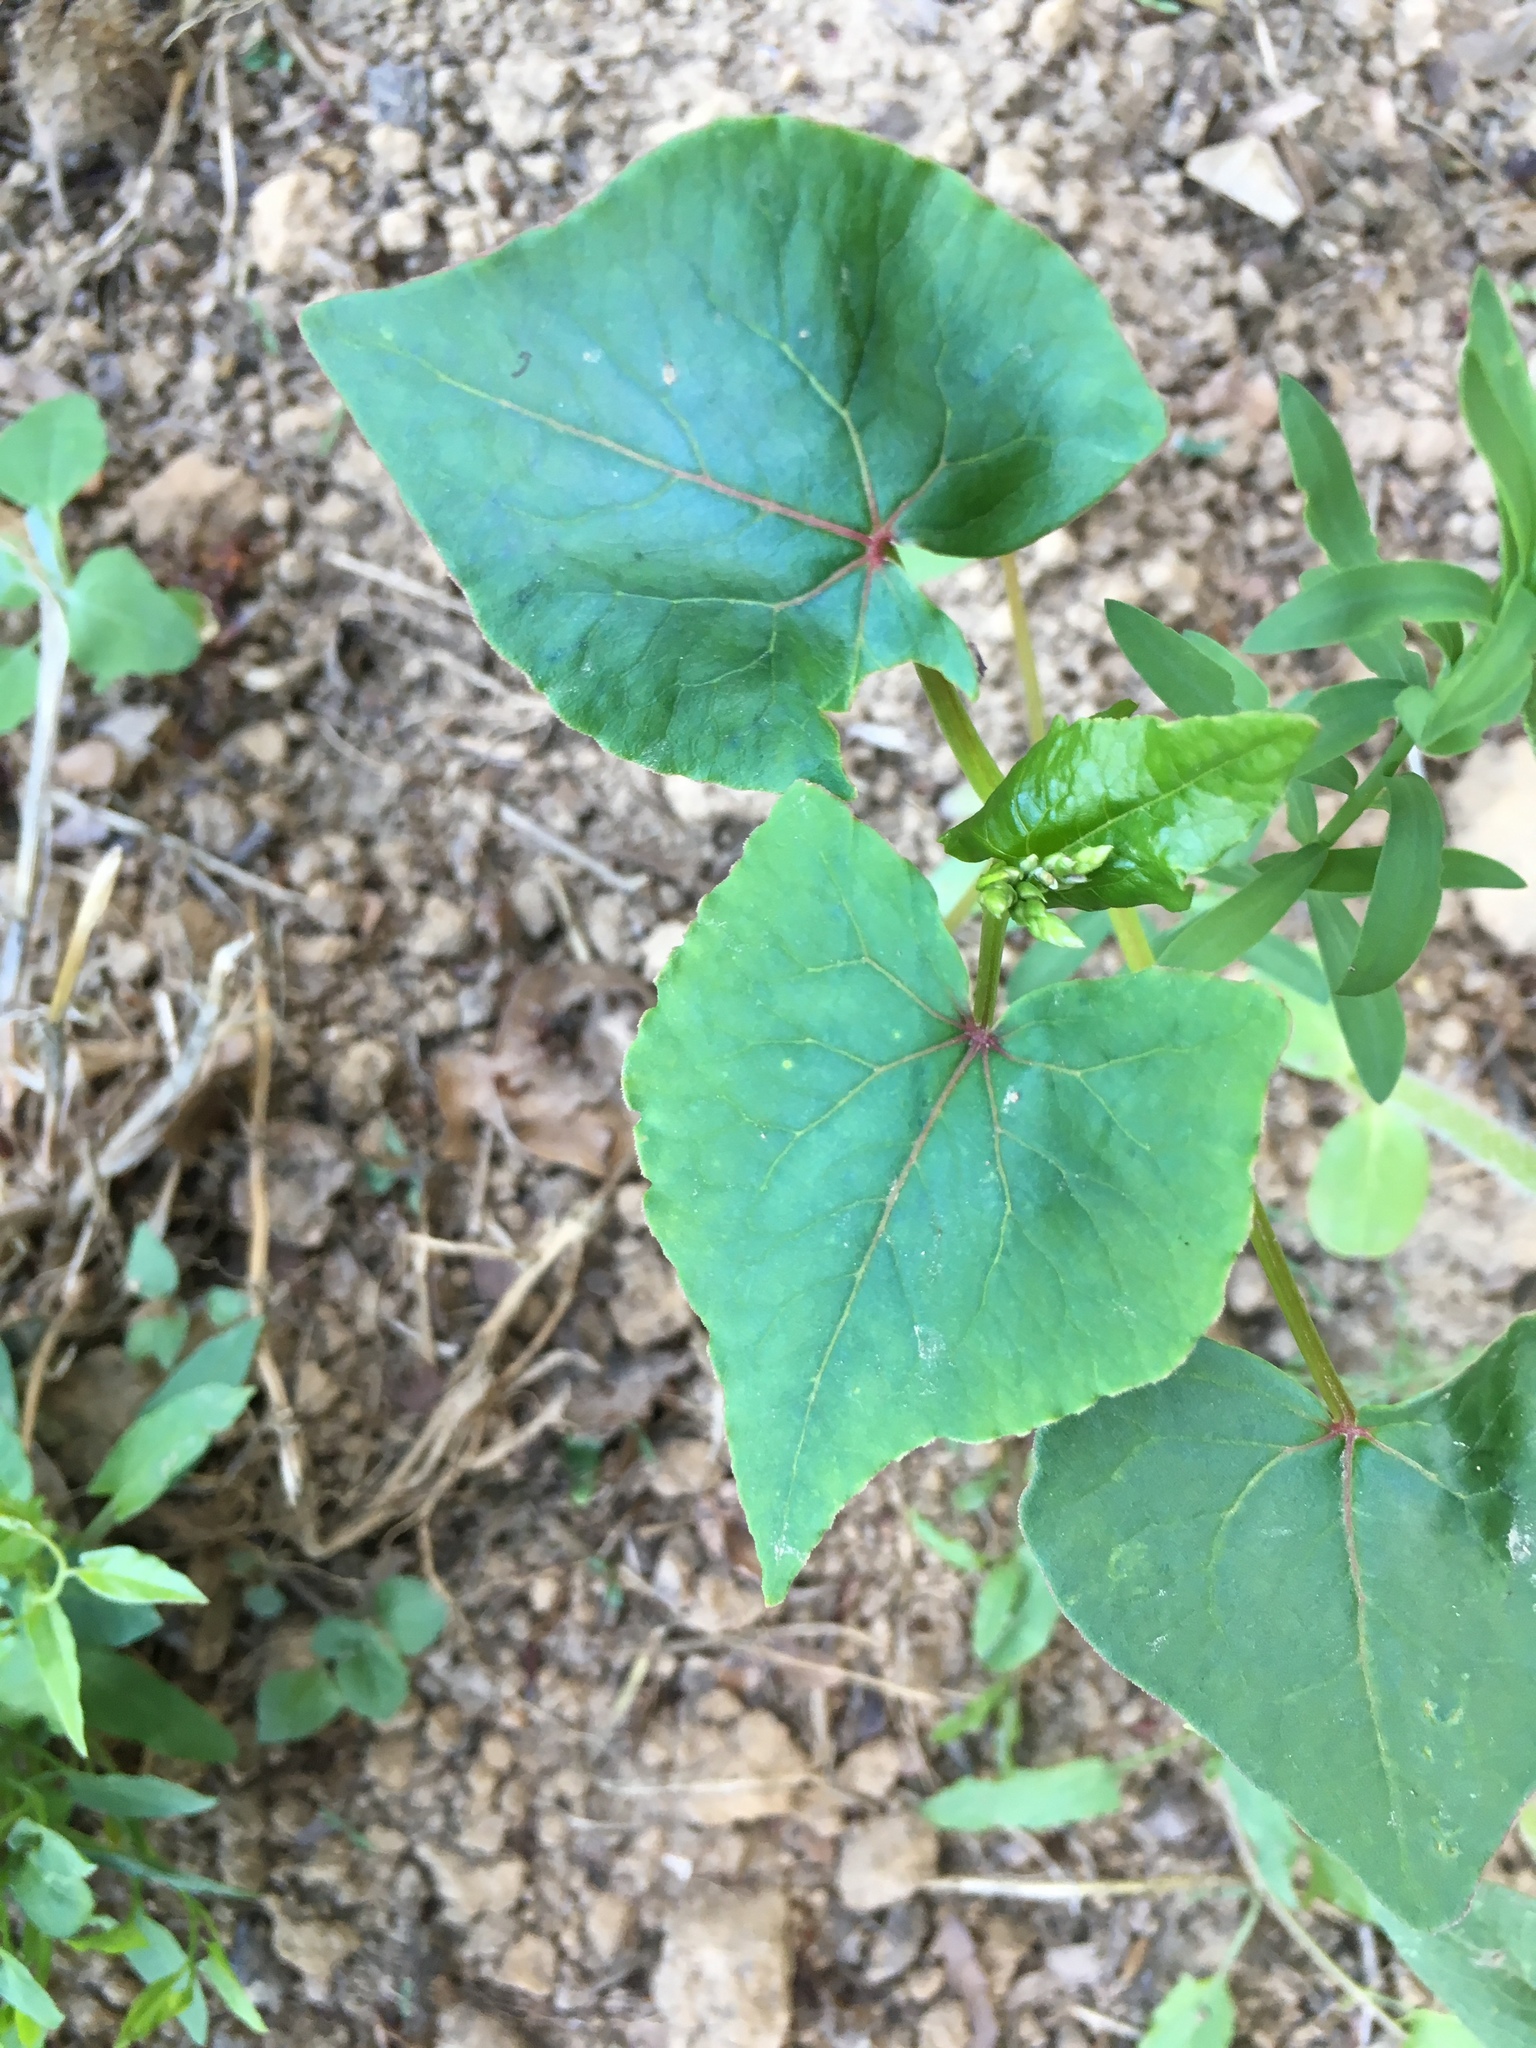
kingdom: Plantae
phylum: Tracheophyta
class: Magnoliopsida
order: Caryophyllales
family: Polygonaceae
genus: Fagopyrum
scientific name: Fagopyrum esculentum
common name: Buckwheat
